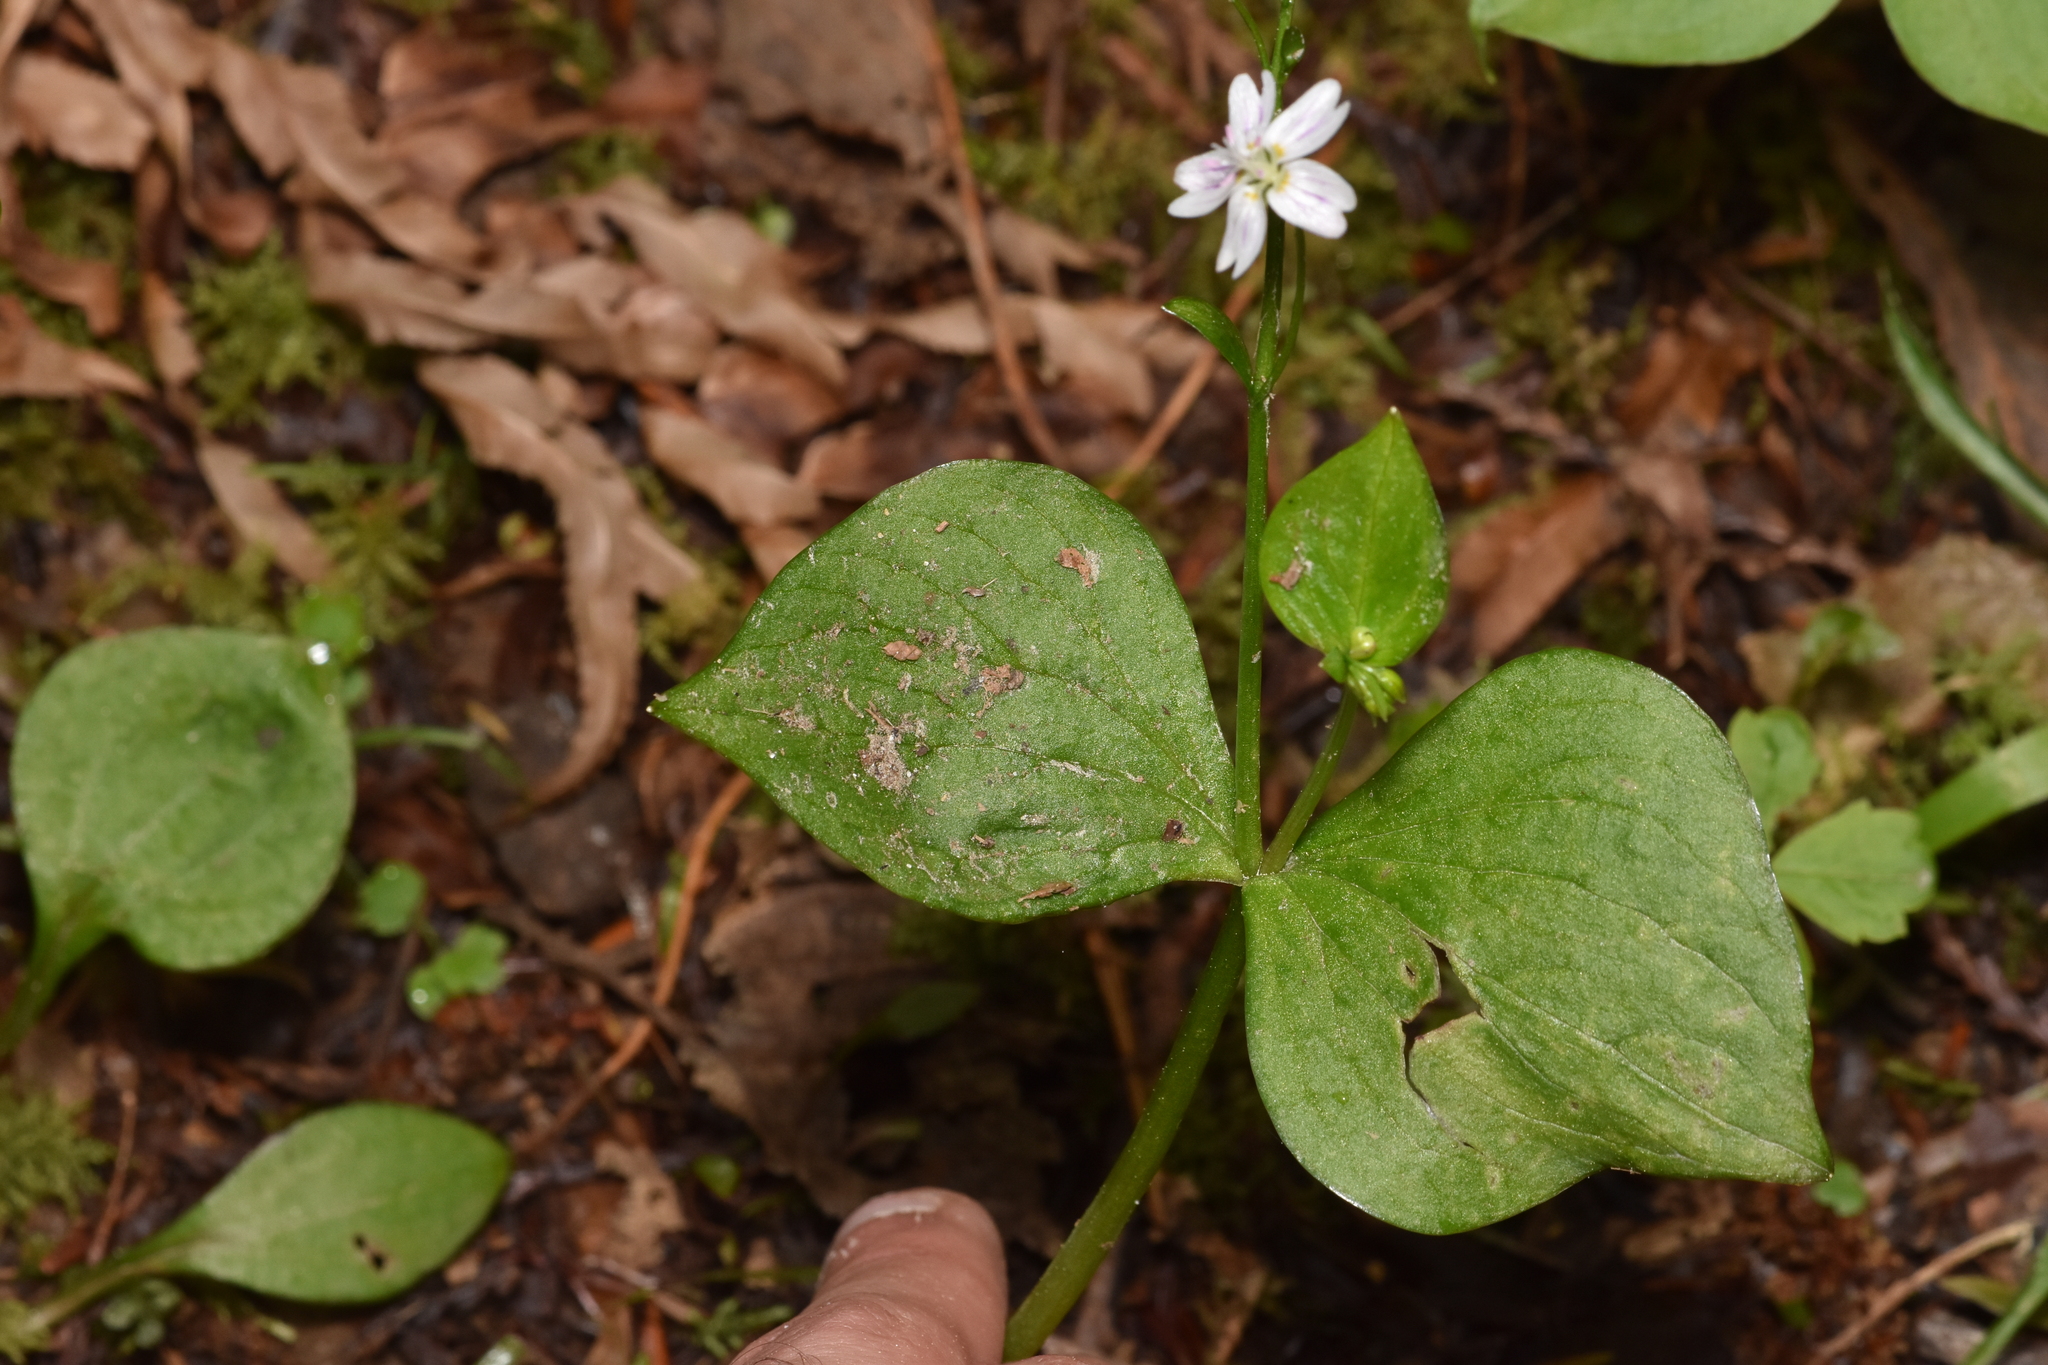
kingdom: Plantae
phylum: Tracheophyta
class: Magnoliopsida
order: Caryophyllales
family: Montiaceae
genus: Claytonia
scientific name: Claytonia sibirica
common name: Pink purslane
